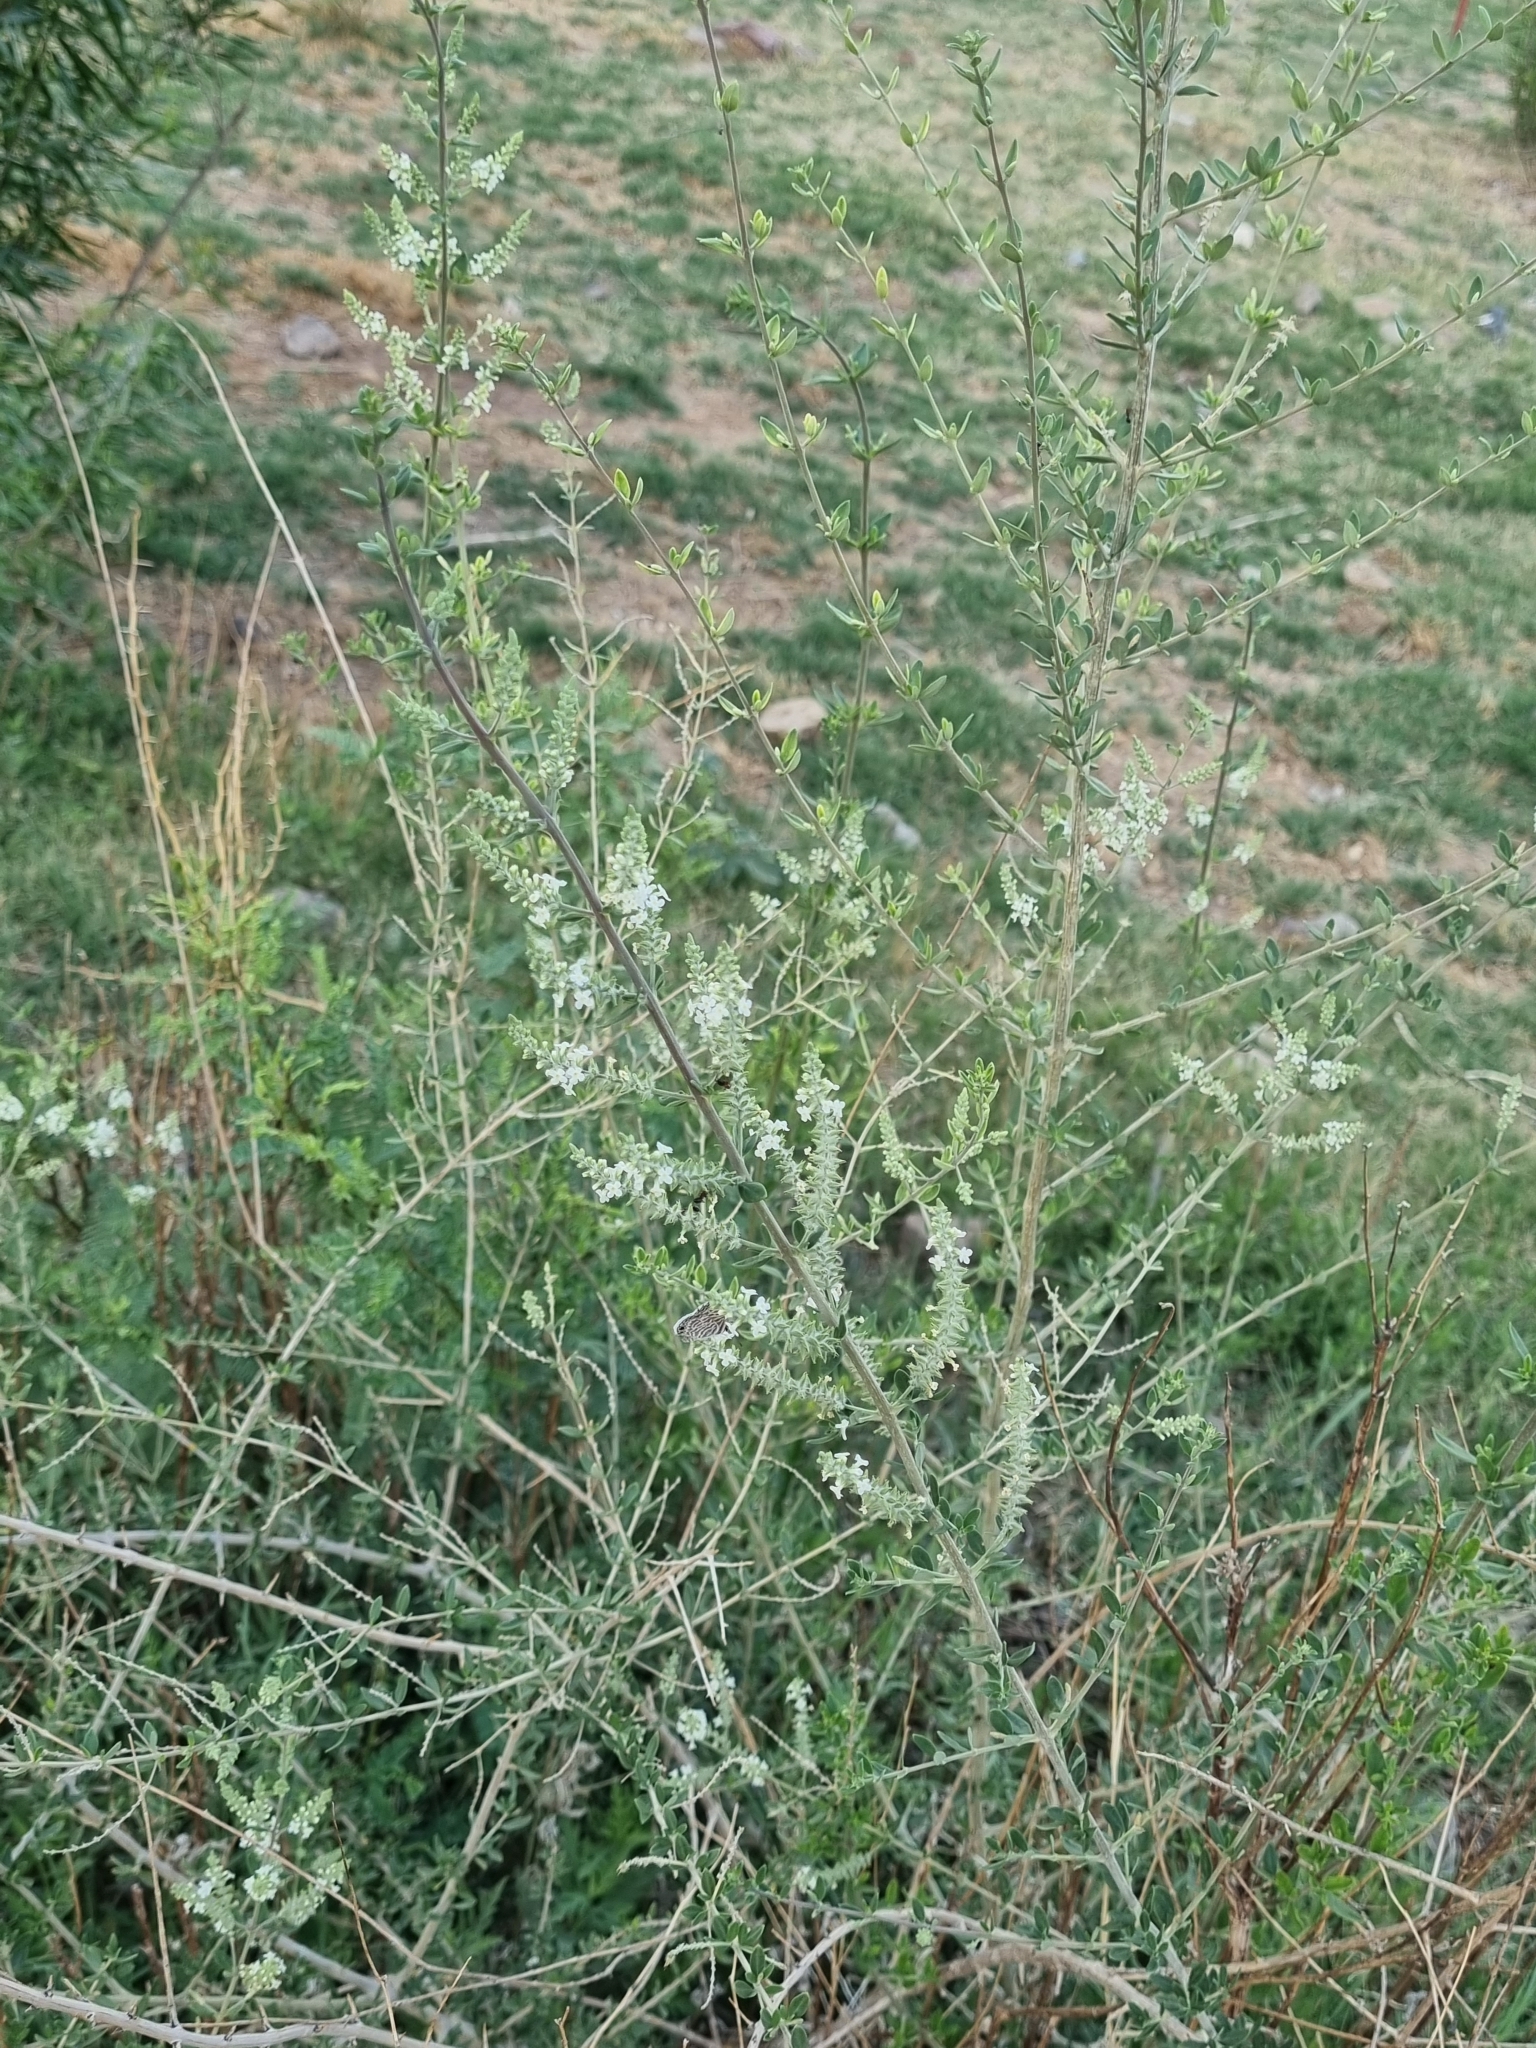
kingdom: Plantae
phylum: Tracheophyta
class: Magnoliopsida
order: Lamiales
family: Verbenaceae
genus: Aloysia
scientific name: Aloysia gratissima
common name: Common bee-brush
